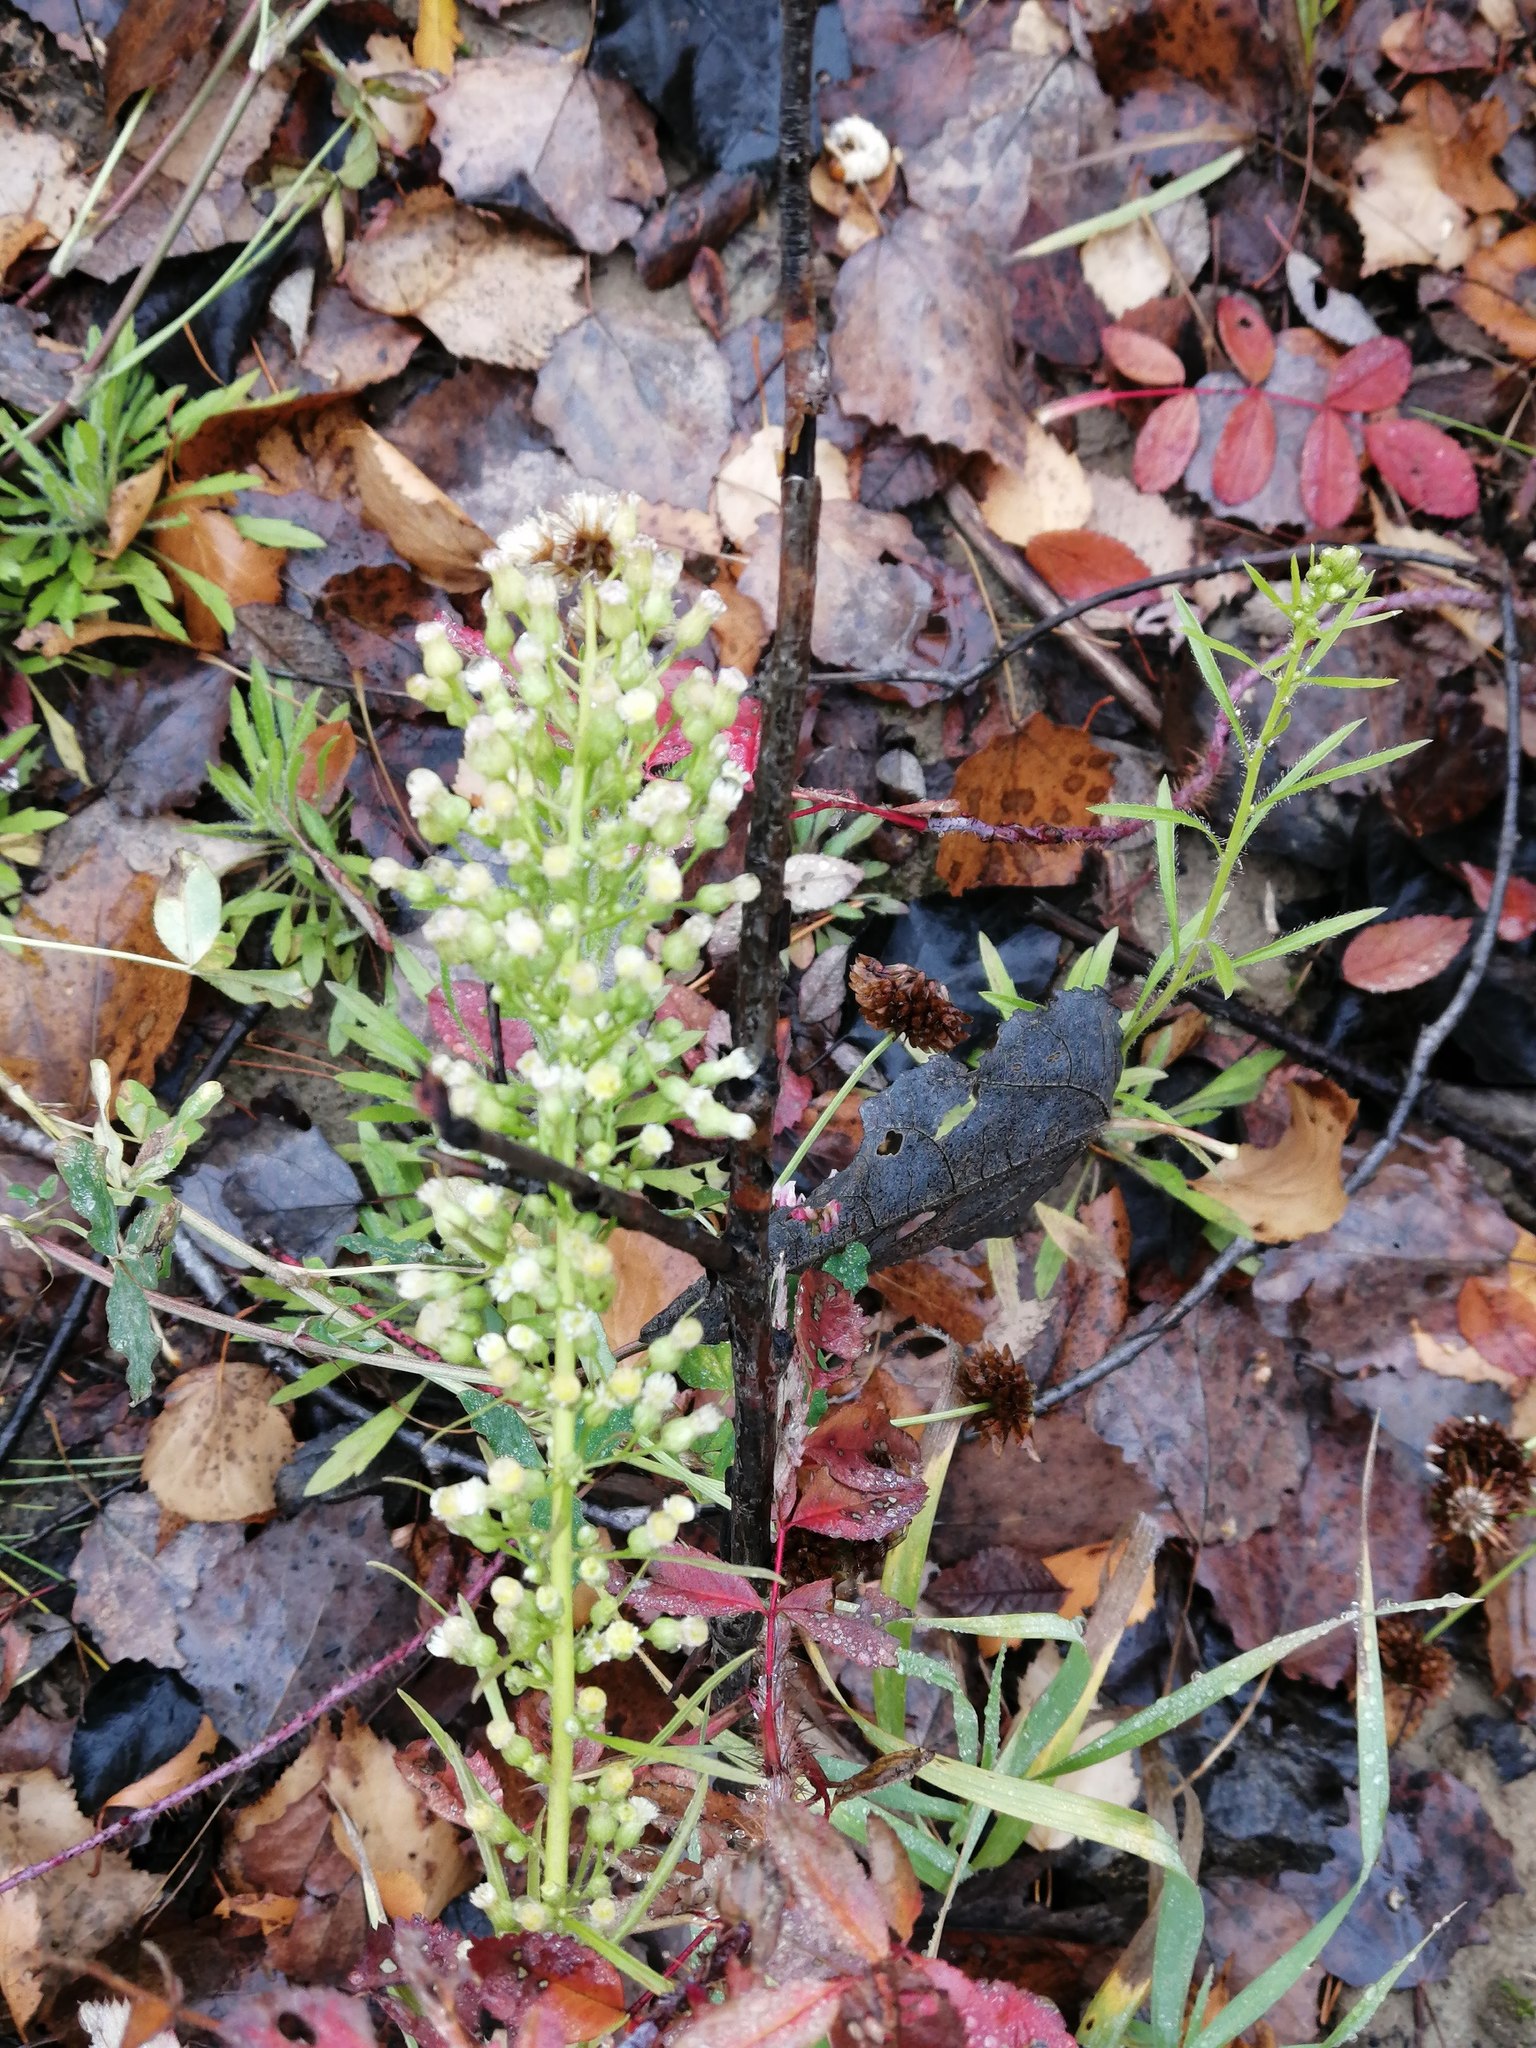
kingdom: Plantae
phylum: Tracheophyta
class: Magnoliopsida
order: Asterales
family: Asteraceae
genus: Erigeron
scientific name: Erigeron canadensis
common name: Canadian fleabane
